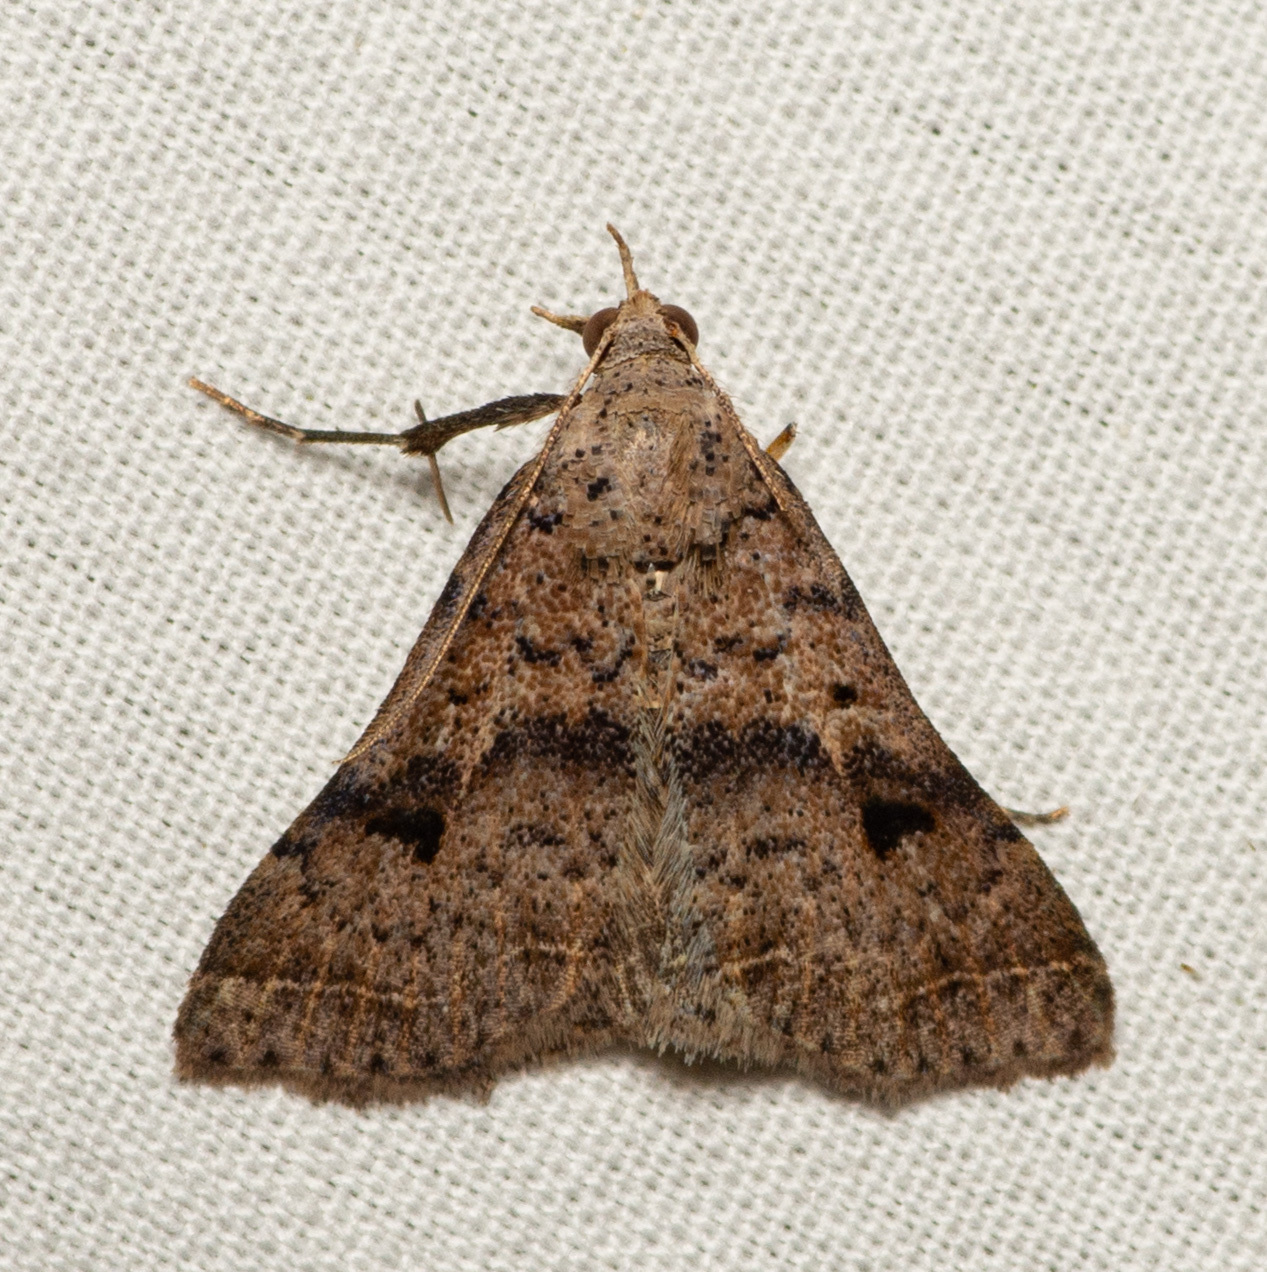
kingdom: Animalia
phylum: Arthropoda
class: Insecta
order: Lepidoptera
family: Erebidae
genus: Bleptina
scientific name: Bleptina caradrinalis
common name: Bent-winged owlet
